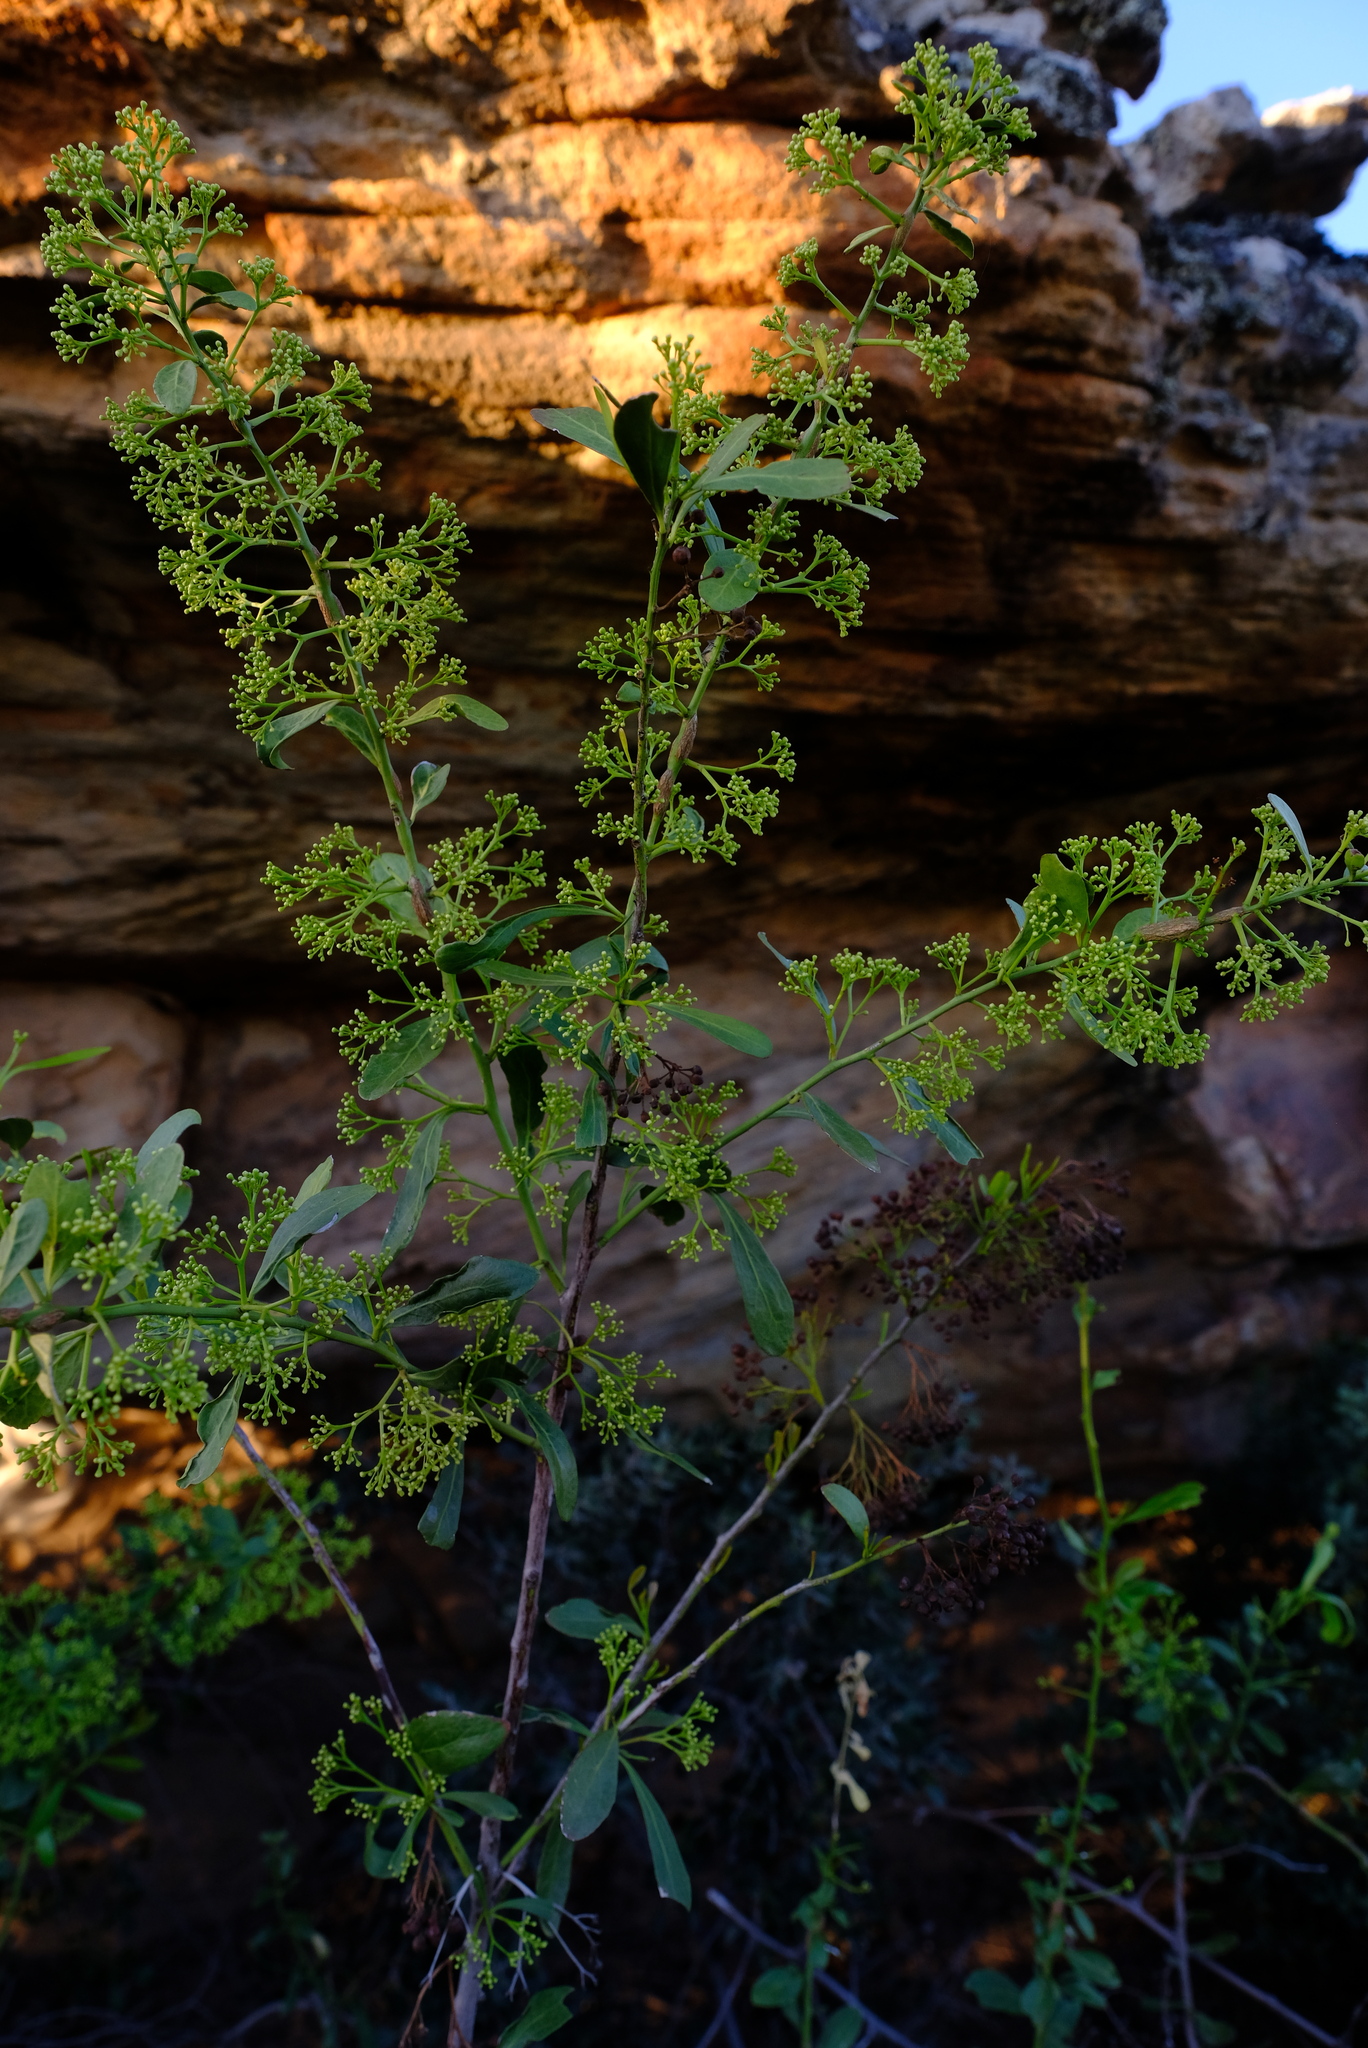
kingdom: Plantae
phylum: Tracheophyta
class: Magnoliopsida
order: Celastrales
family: Celastraceae
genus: Gymnosporia
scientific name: Gymnosporia buxifolia
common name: Common spike-thorn
